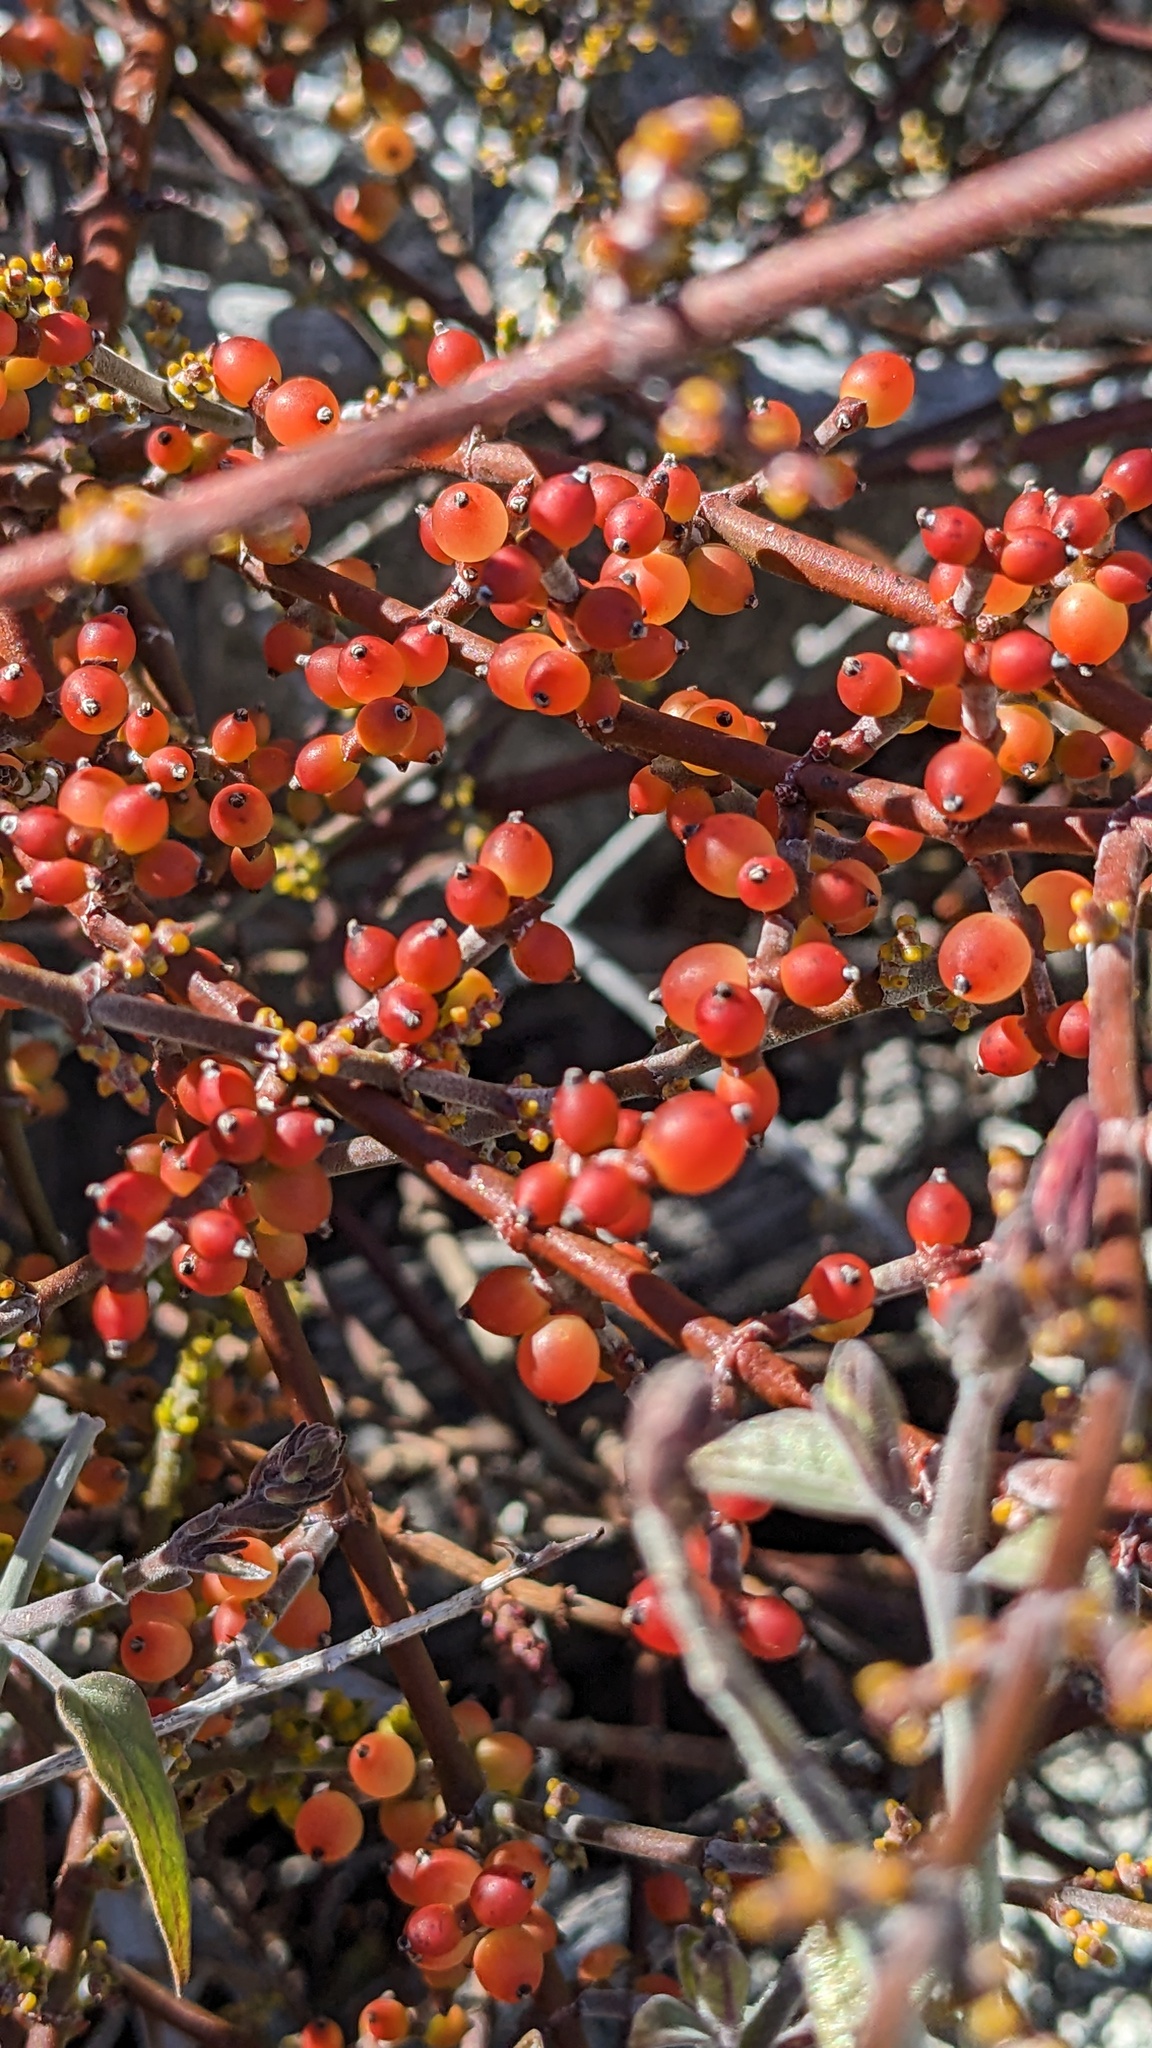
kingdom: Plantae
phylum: Tracheophyta
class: Magnoliopsida
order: Santalales
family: Viscaceae
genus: Phoradendron
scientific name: Phoradendron californicum
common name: Acacia mistletoe
